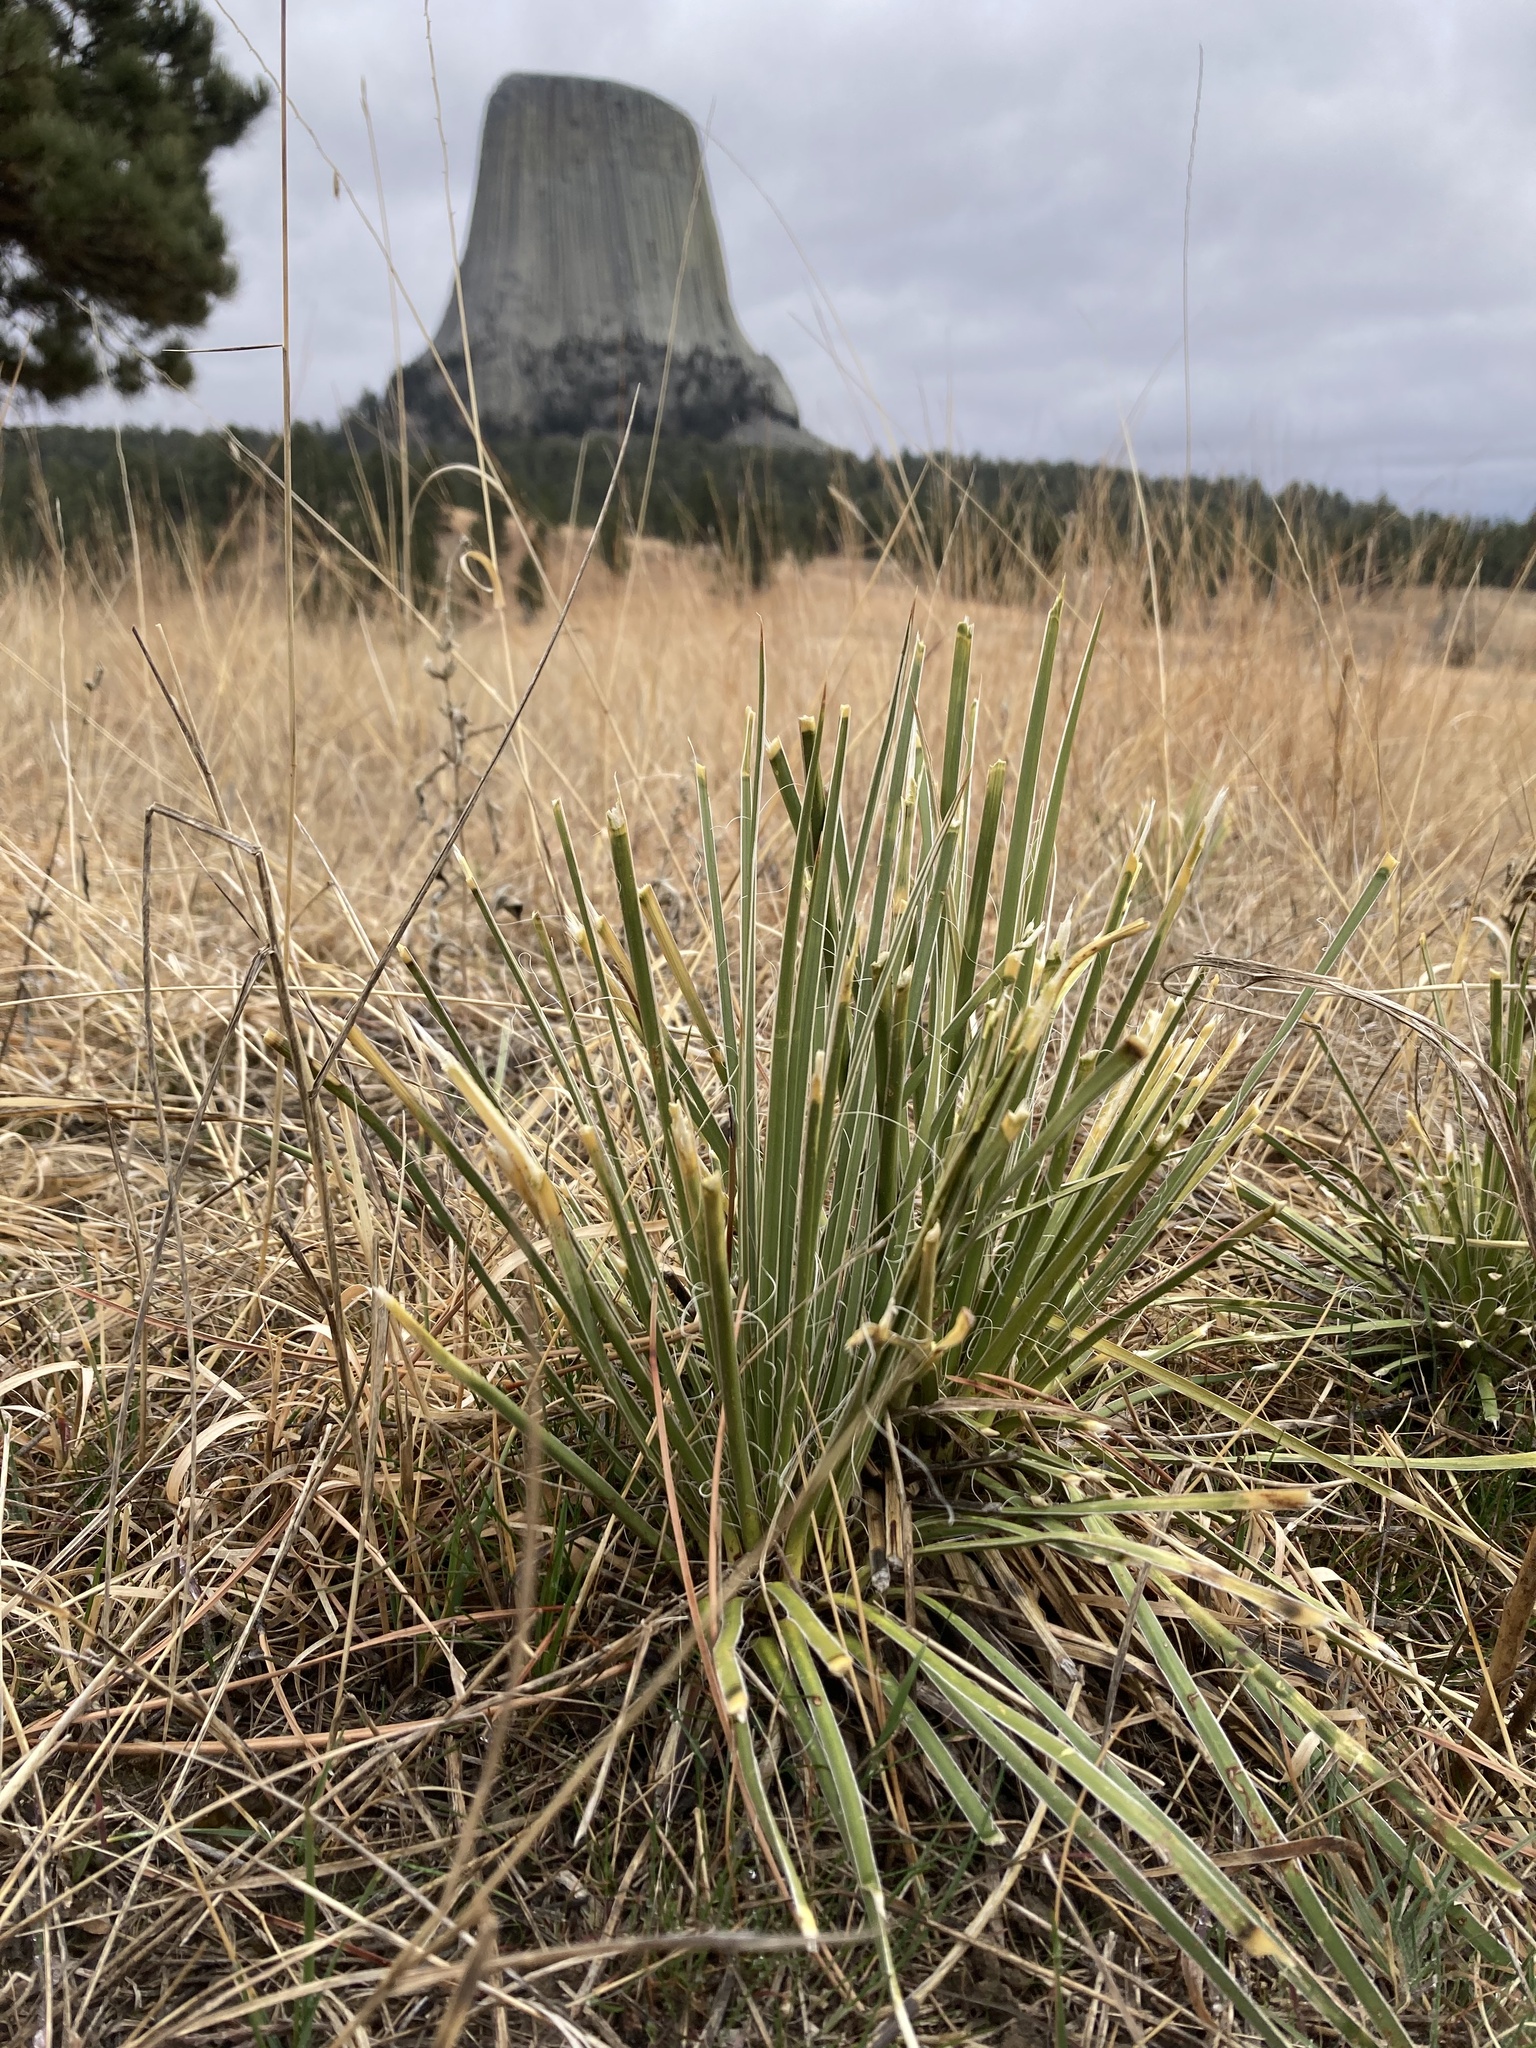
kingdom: Plantae
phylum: Tracheophyta
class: Liliopsida
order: Asparagales
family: Asparagaceae
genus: Yucca
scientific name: Yucca glauca
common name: Great plains yucca
